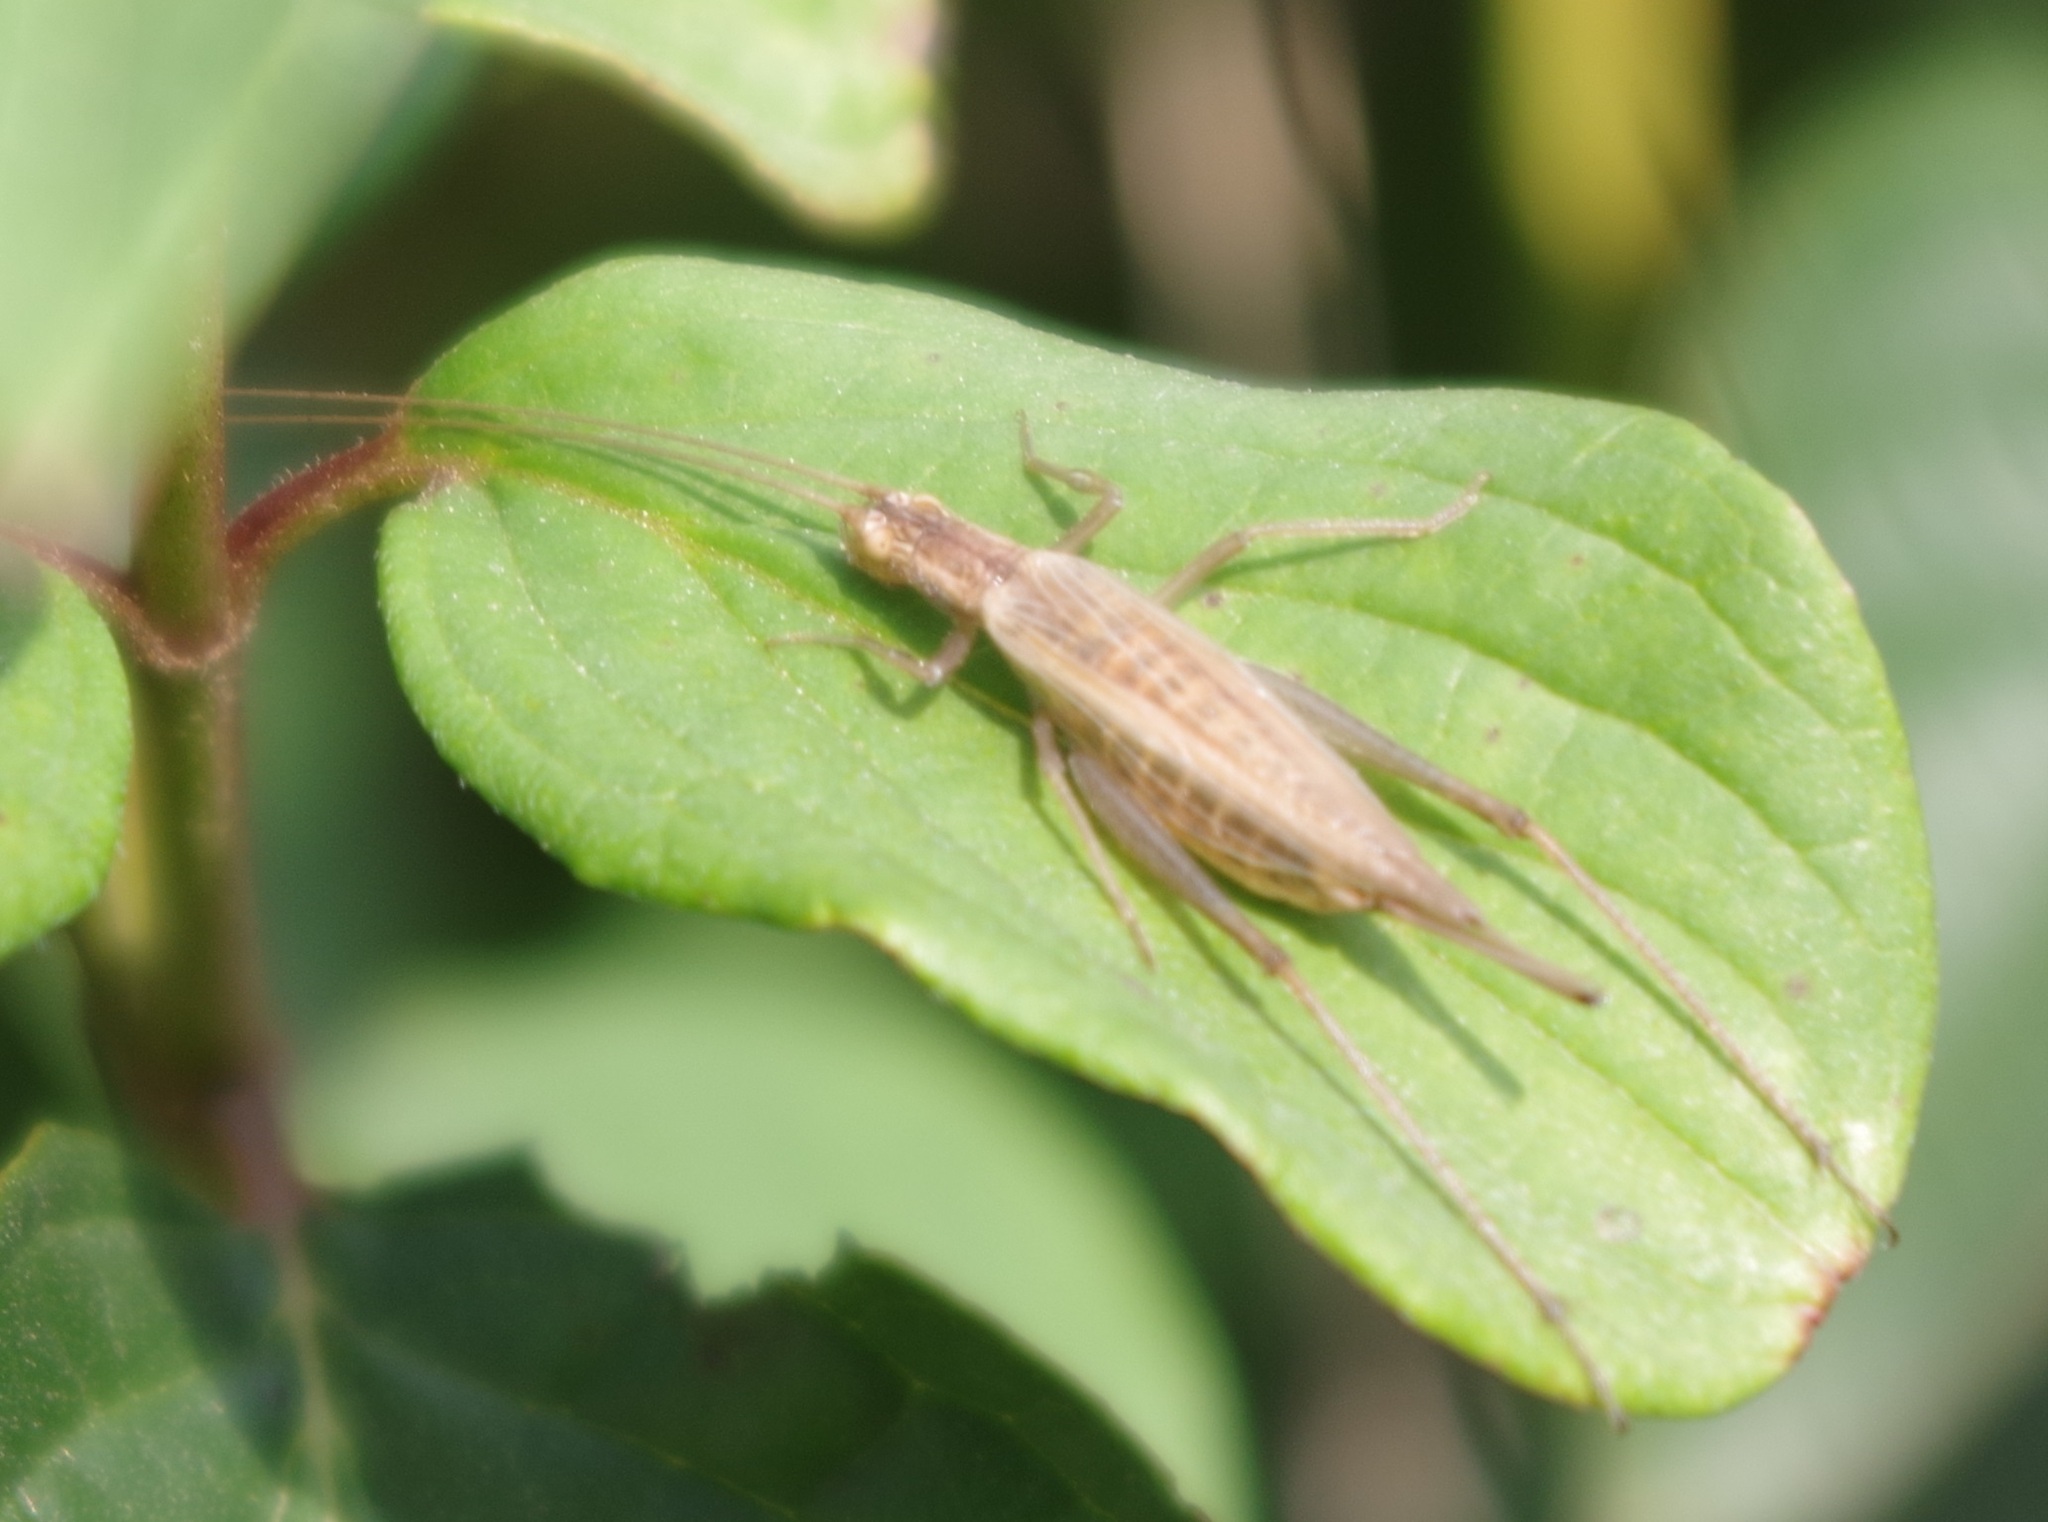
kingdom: Animalia
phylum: Arthropoda
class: Insecta
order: Orthoptera
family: Gryllidae
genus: Oecanthus
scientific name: Oecanthus pellucens
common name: Tree-cricket
